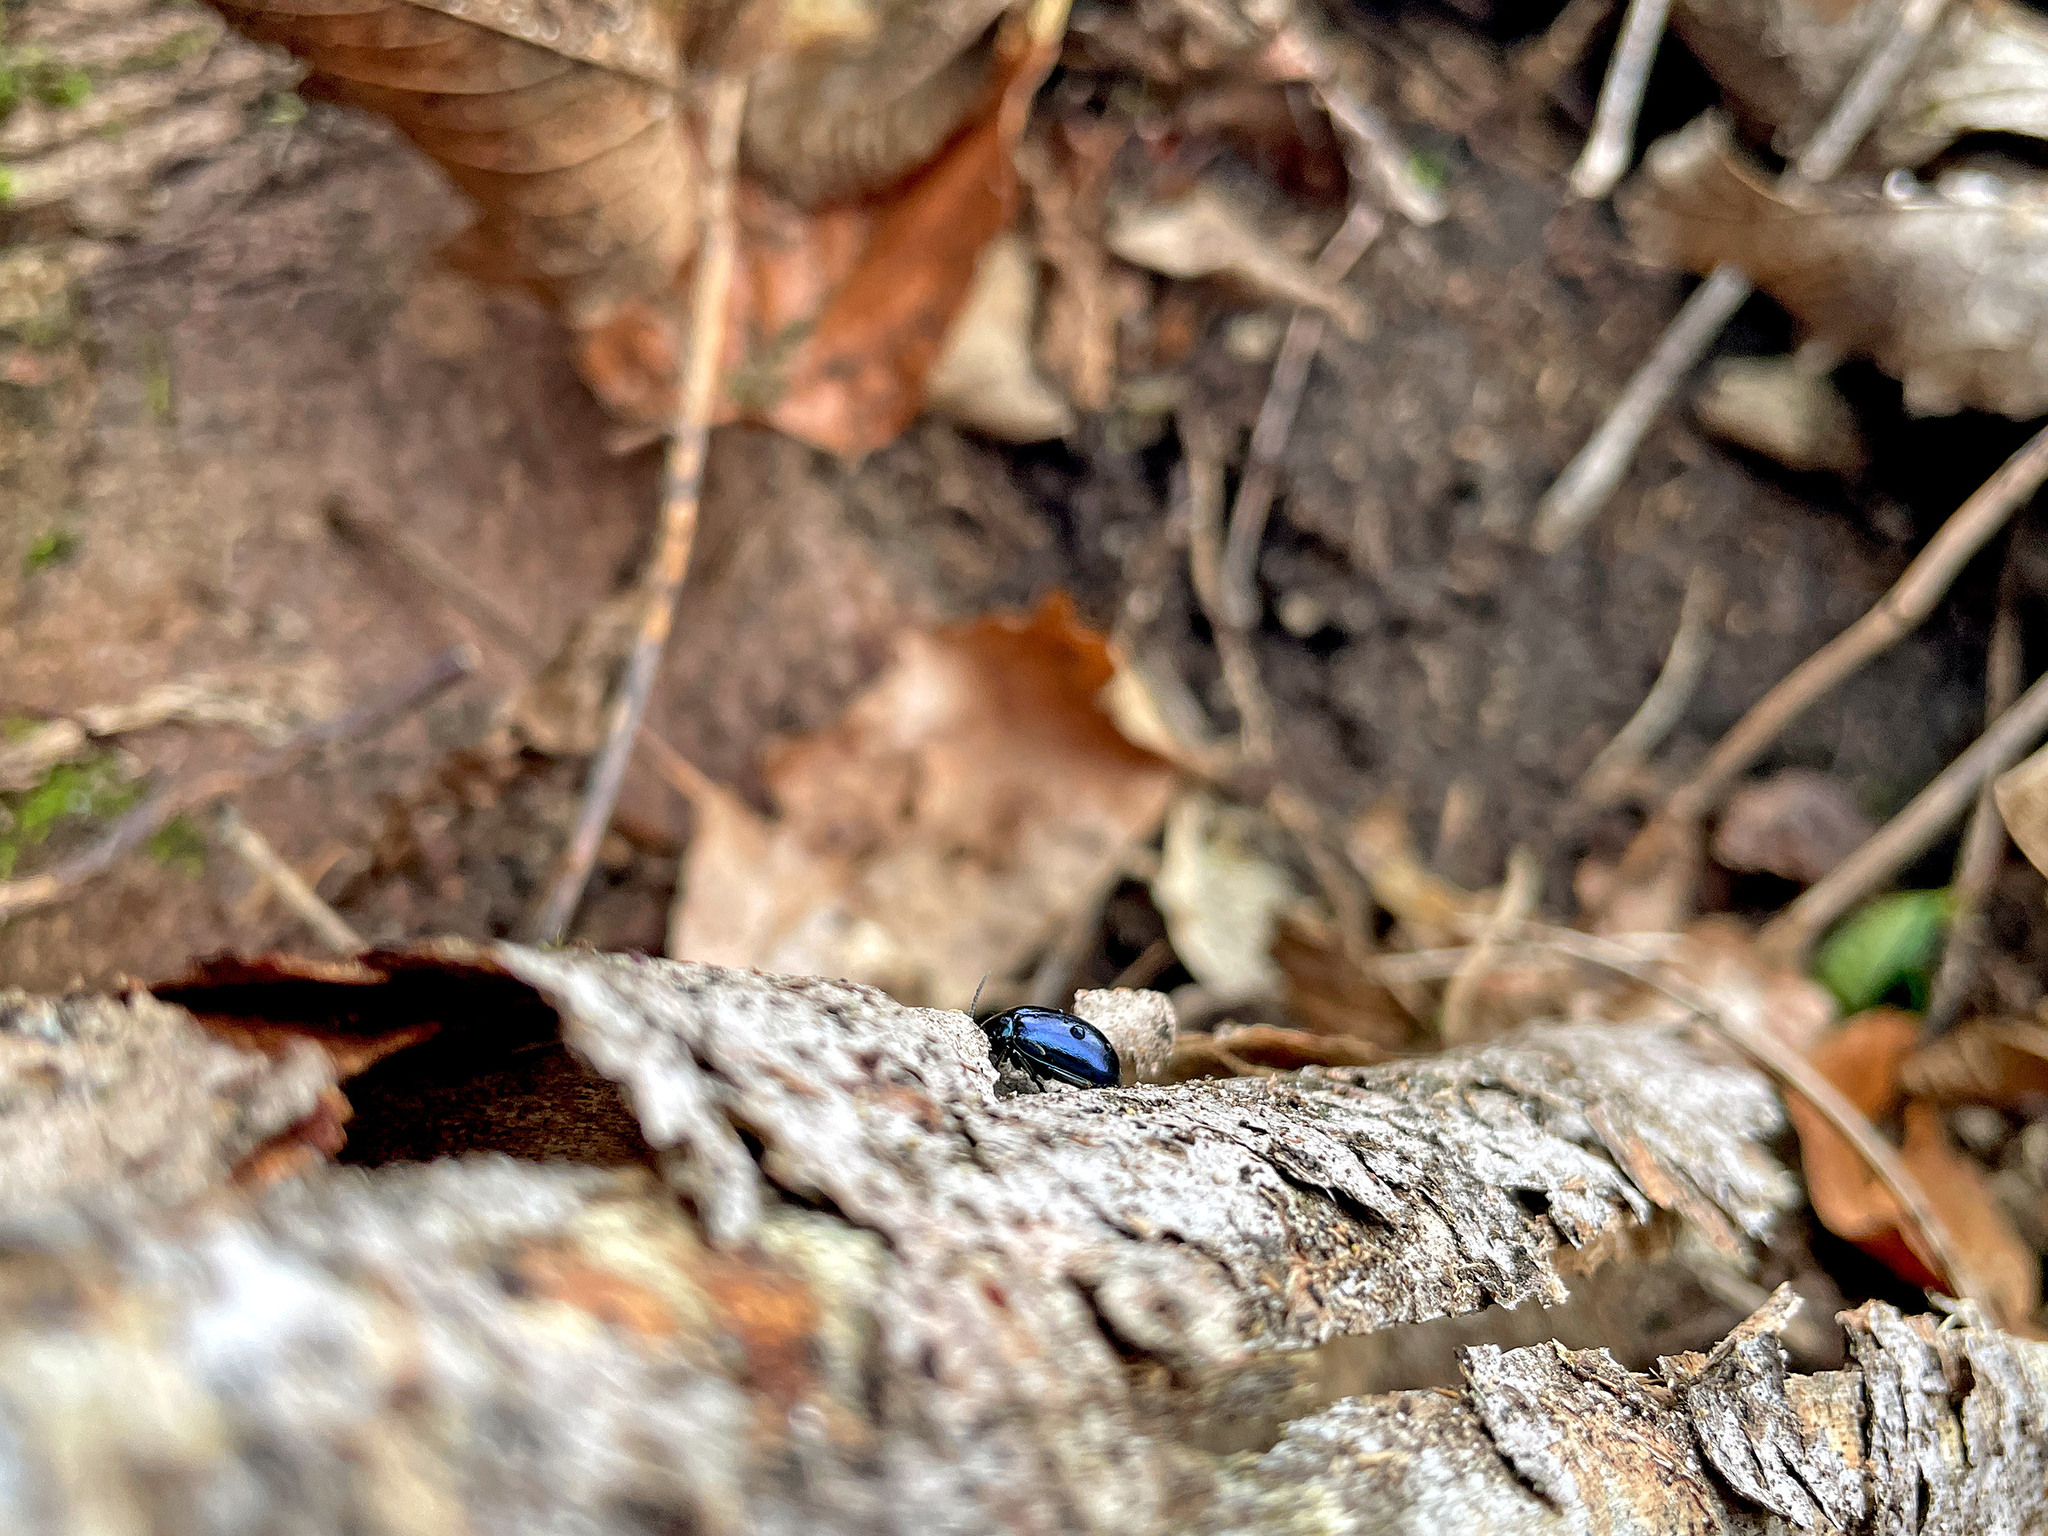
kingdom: Animalia
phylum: Arthropoda
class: Insecta
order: Coleoptera
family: Chrysomelidae
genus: Agelastica
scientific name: Agelastica alni
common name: Alder leaf beetle
